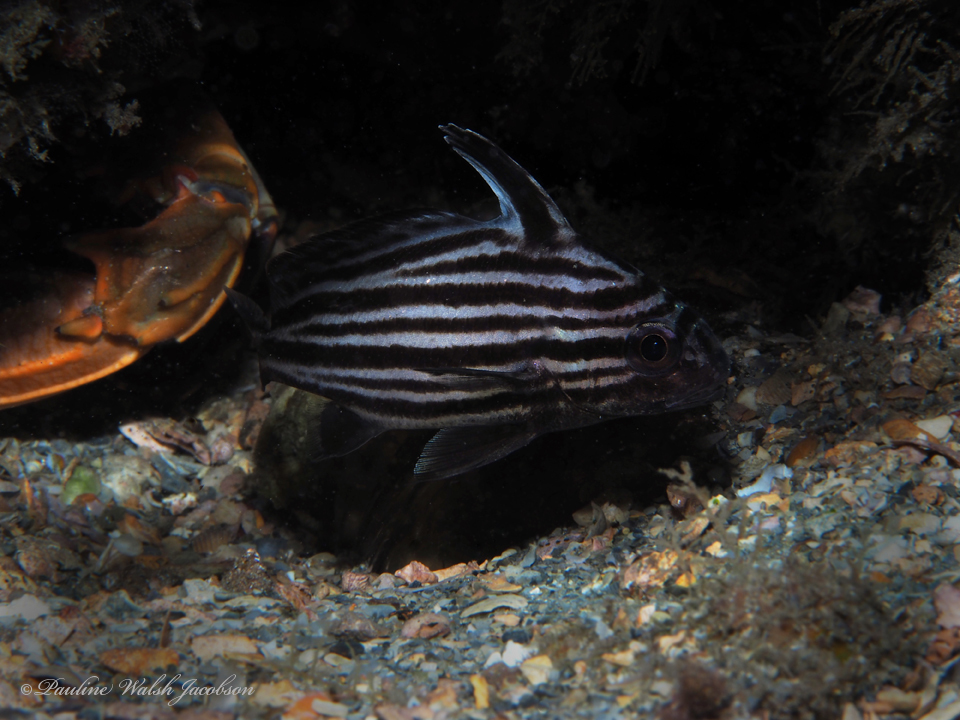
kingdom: Animalia
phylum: Chordata
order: Perciformes
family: Sciaenidae
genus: Pareques
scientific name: Pareques acuminatus
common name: High-hat
